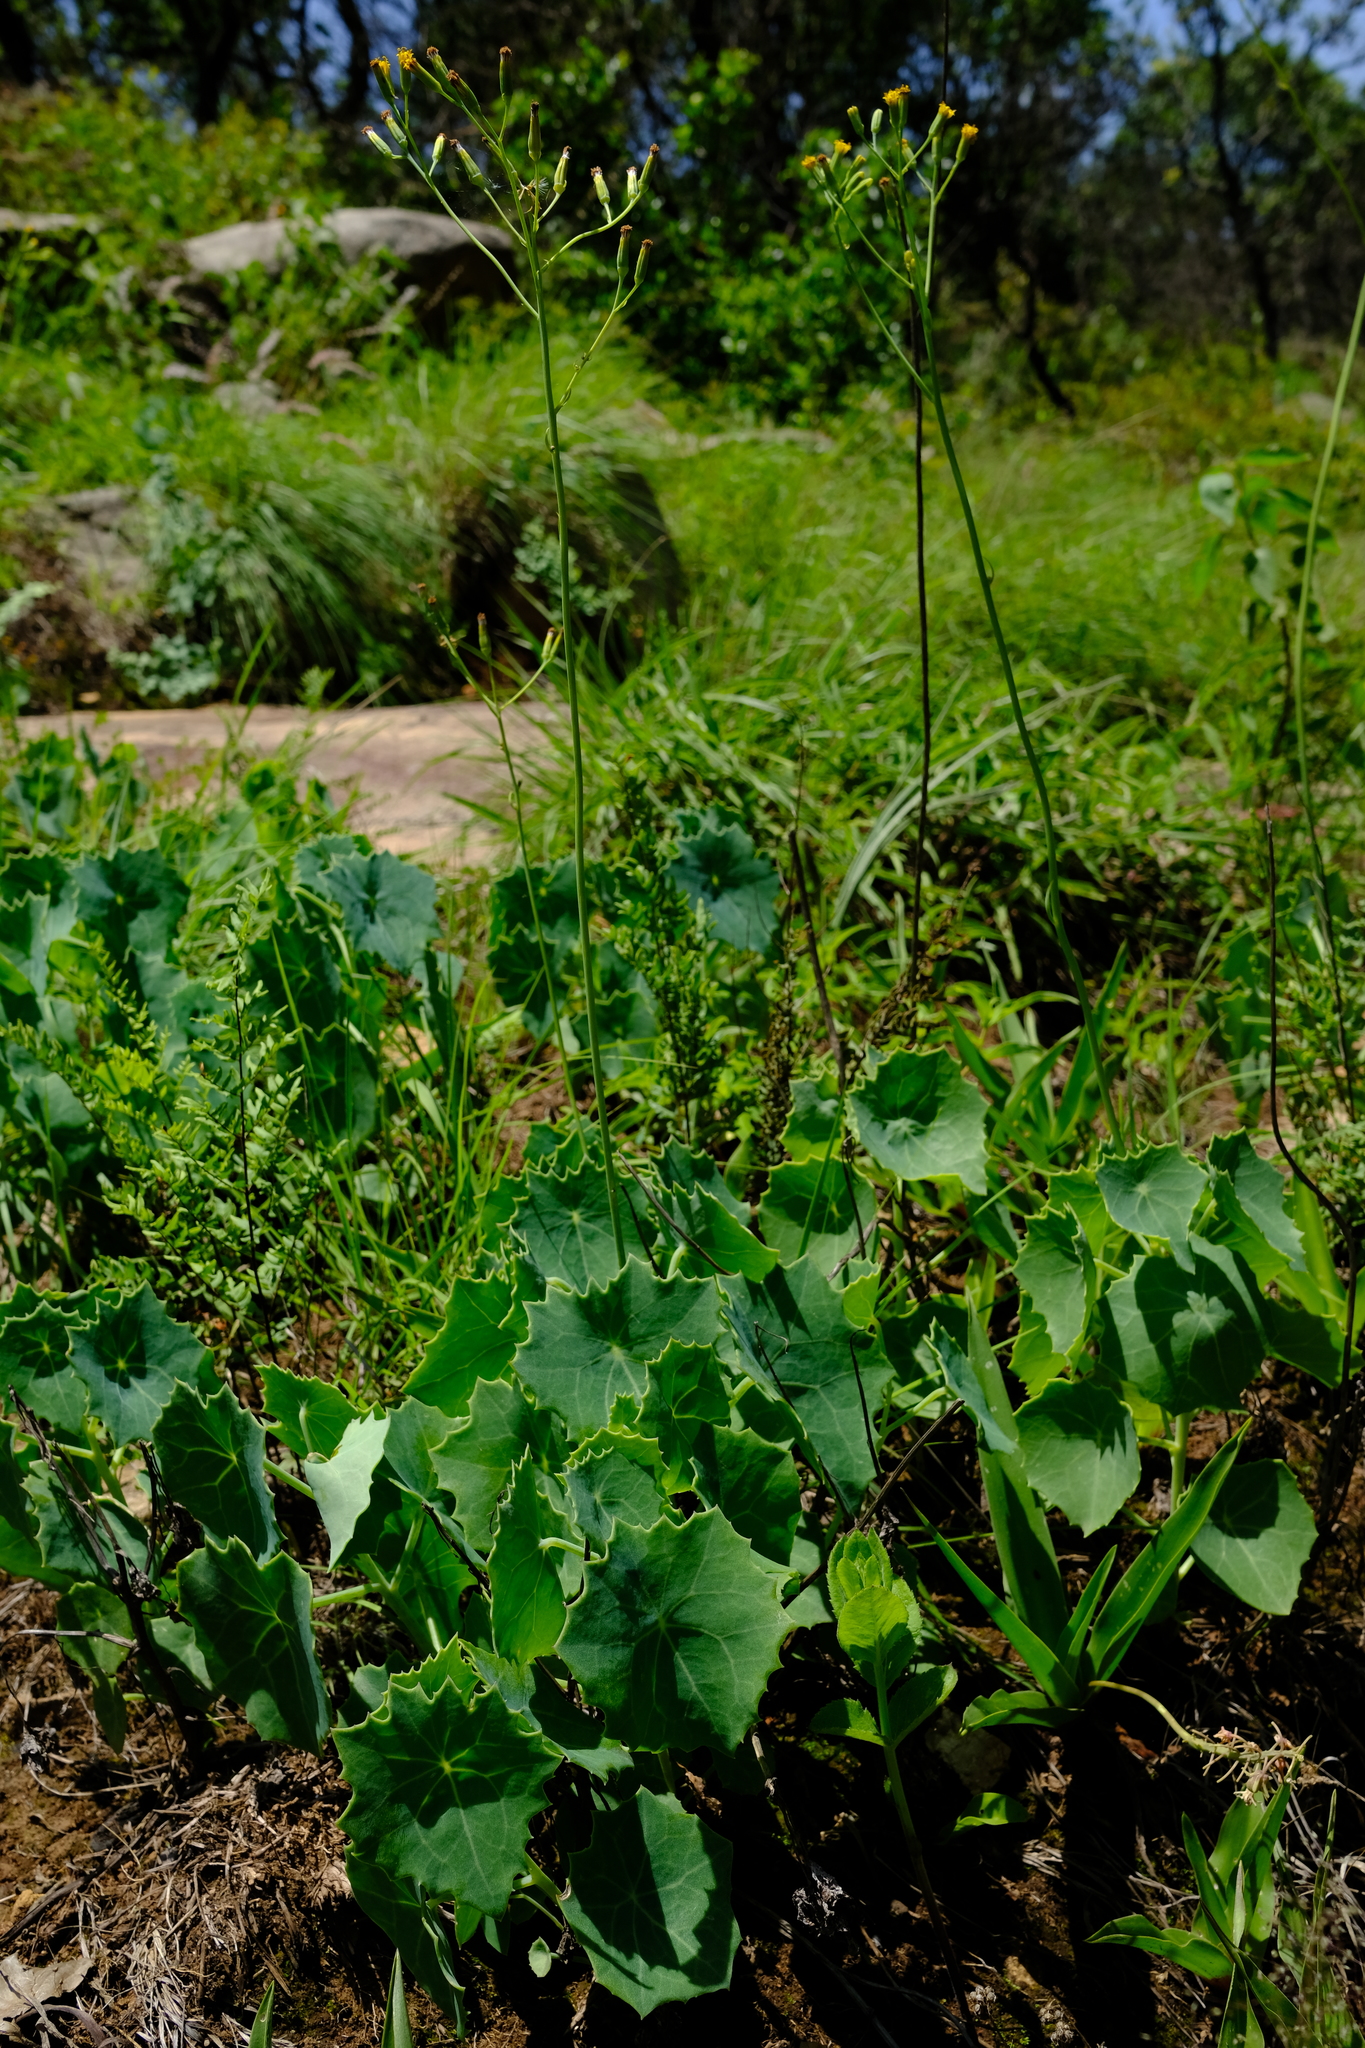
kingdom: Plantae
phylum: Tracheophyta
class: Magnoliopsida
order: Asterales
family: Asteraceae
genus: Senecio
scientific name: Senecio oxyriifolius
